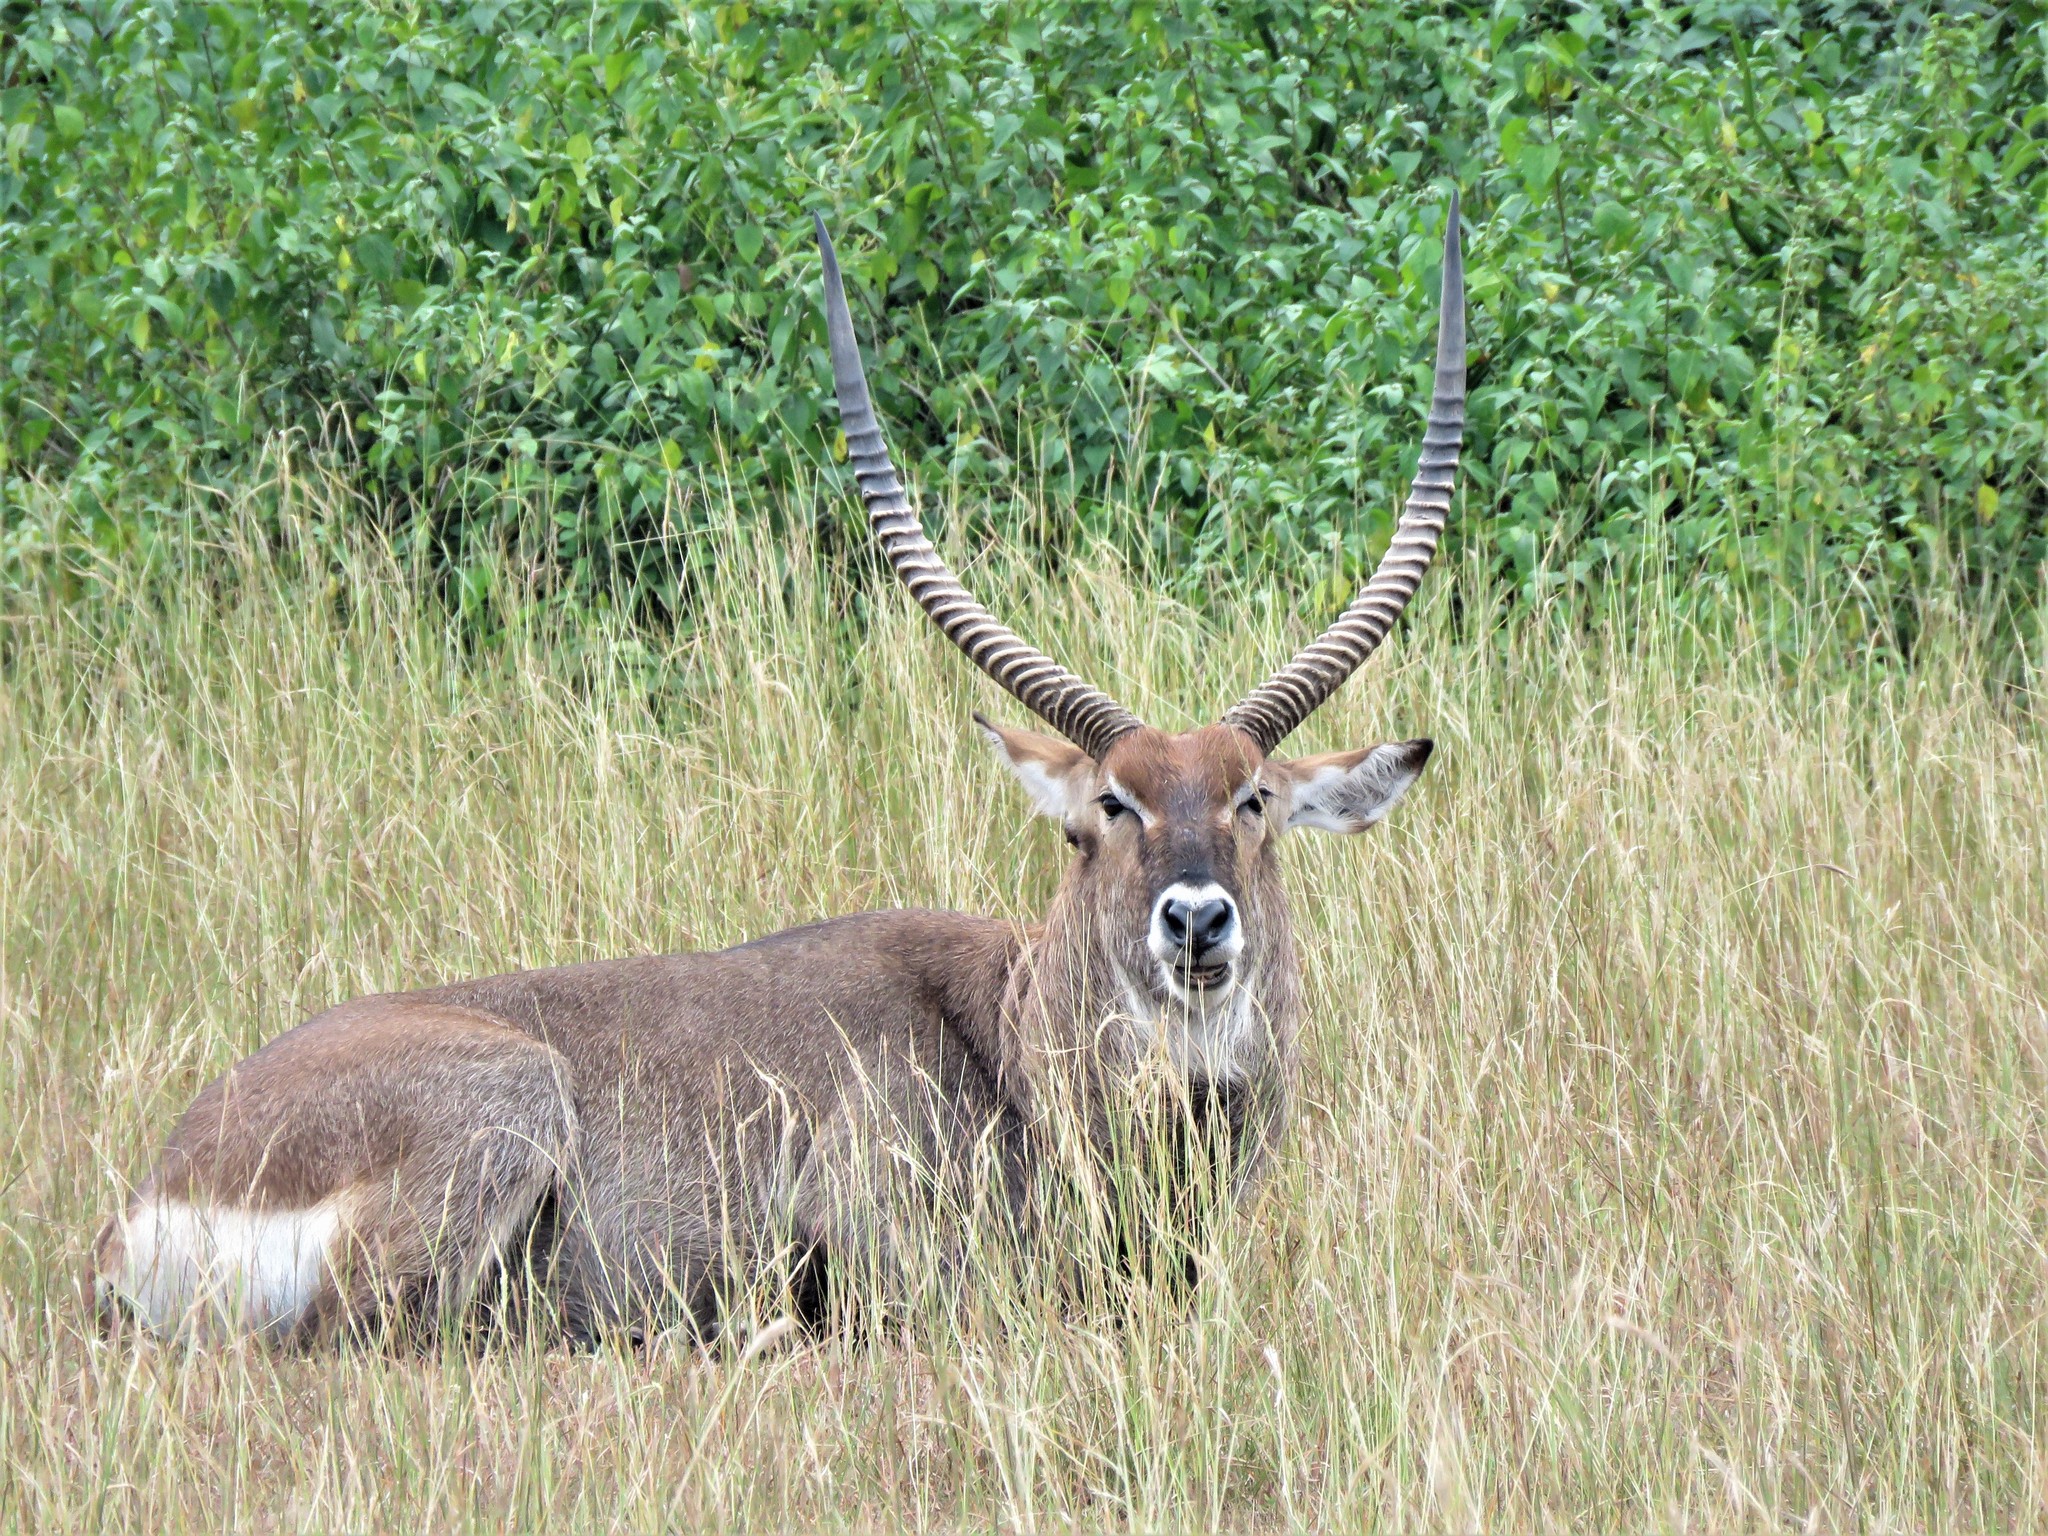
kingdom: Animalia
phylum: Chordata
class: Mammalia
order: Artiodactyla
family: Bovidae
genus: Kobus
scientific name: Kobus ellipsiprymnus
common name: Waterbuck
